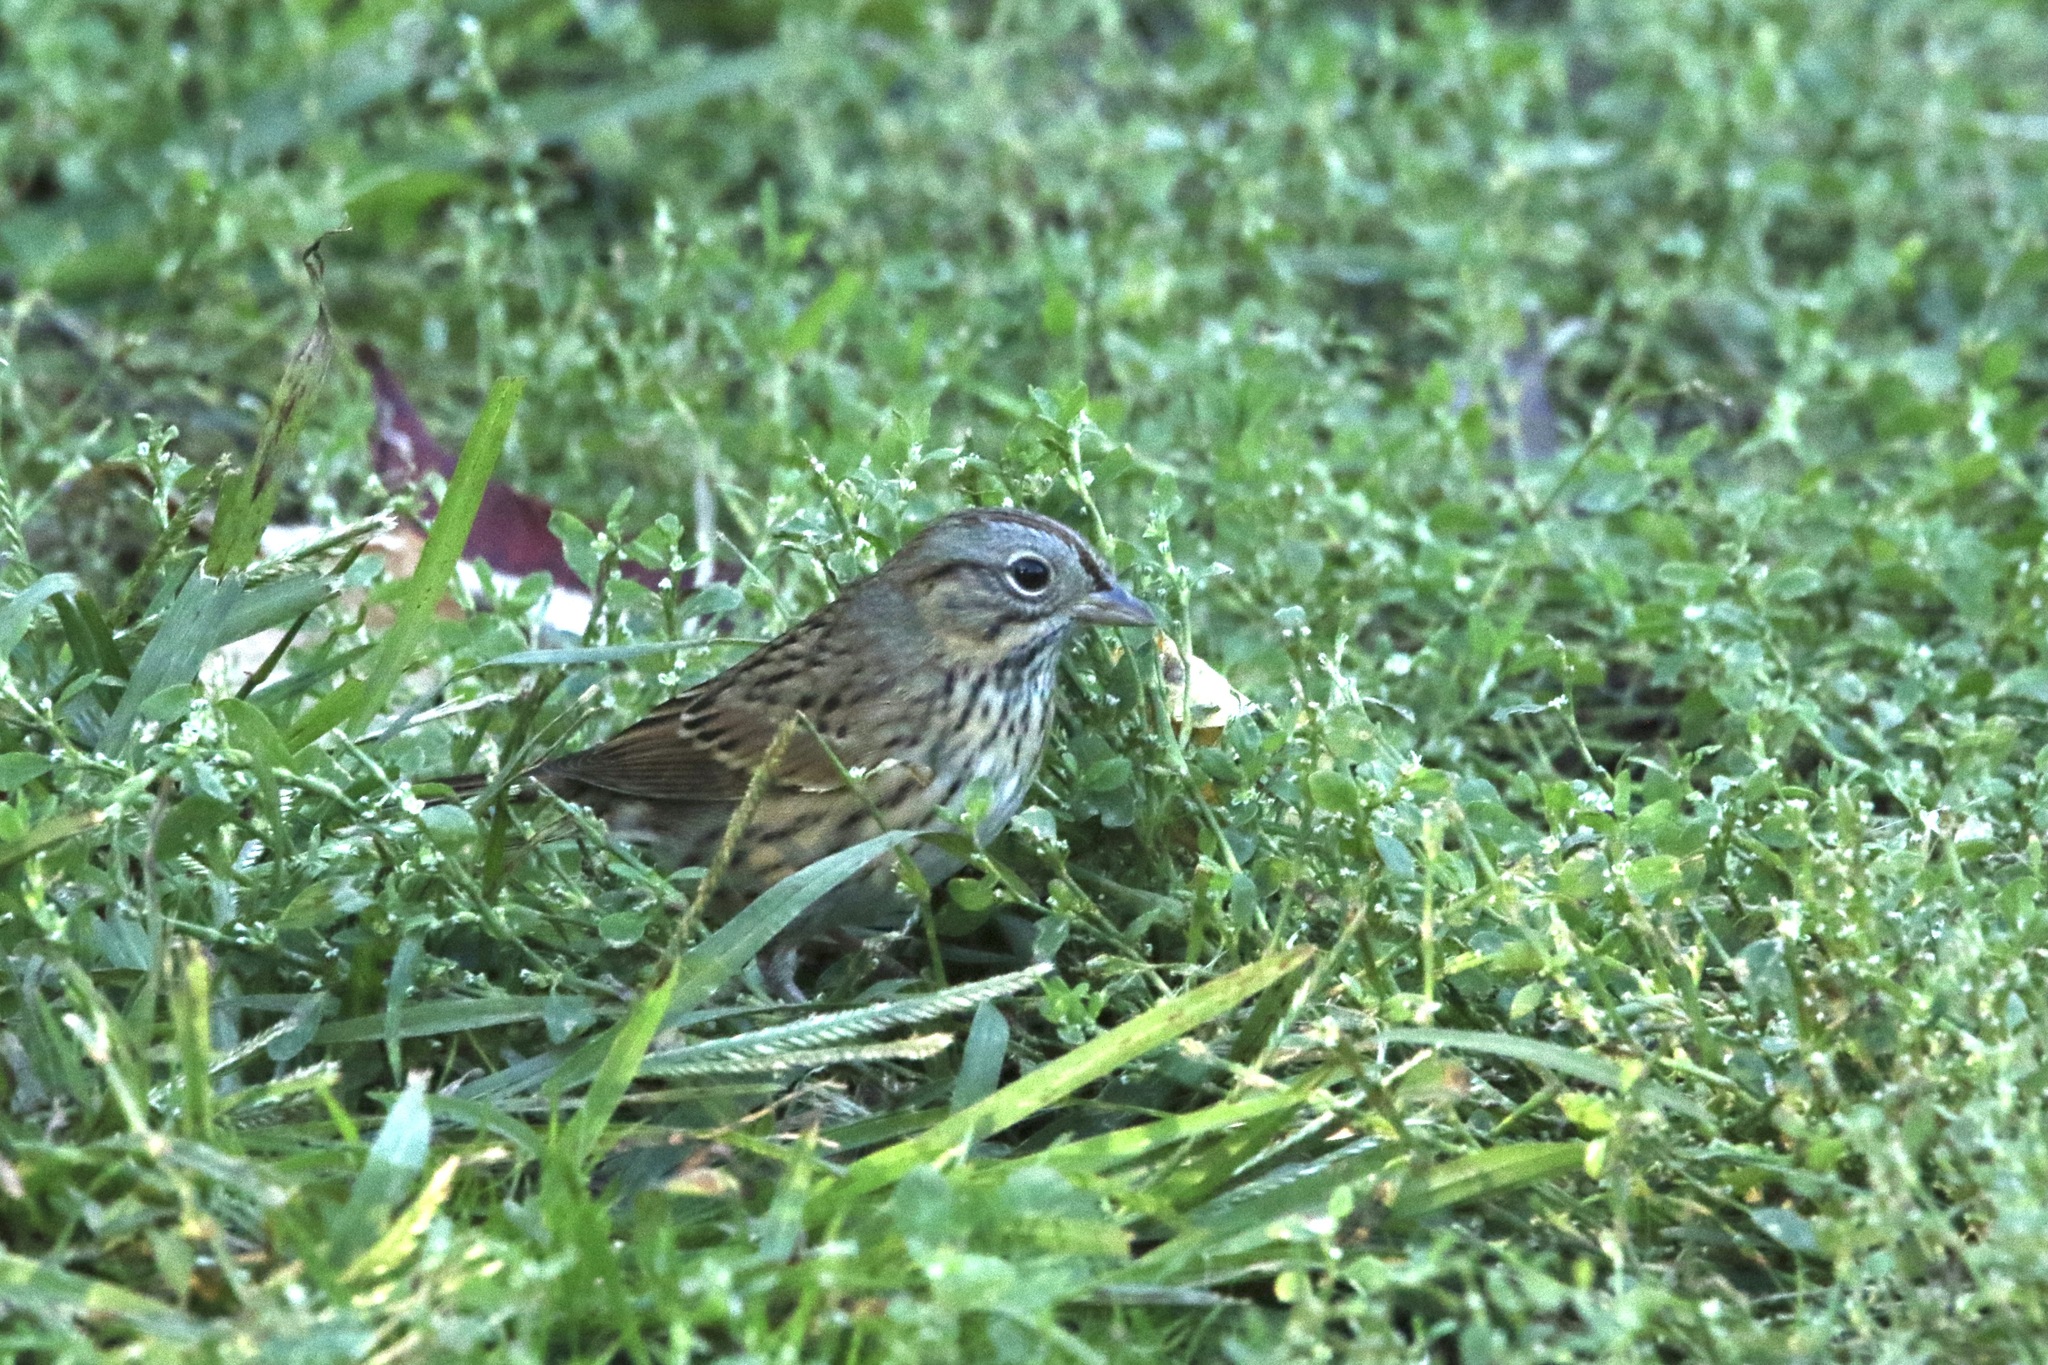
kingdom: Animalia
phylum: Chordata
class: Aves
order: Passeriformes
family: Passerellidae
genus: Melospiza
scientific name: Melospiza lincolnii
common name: Lincoln's sparrow
